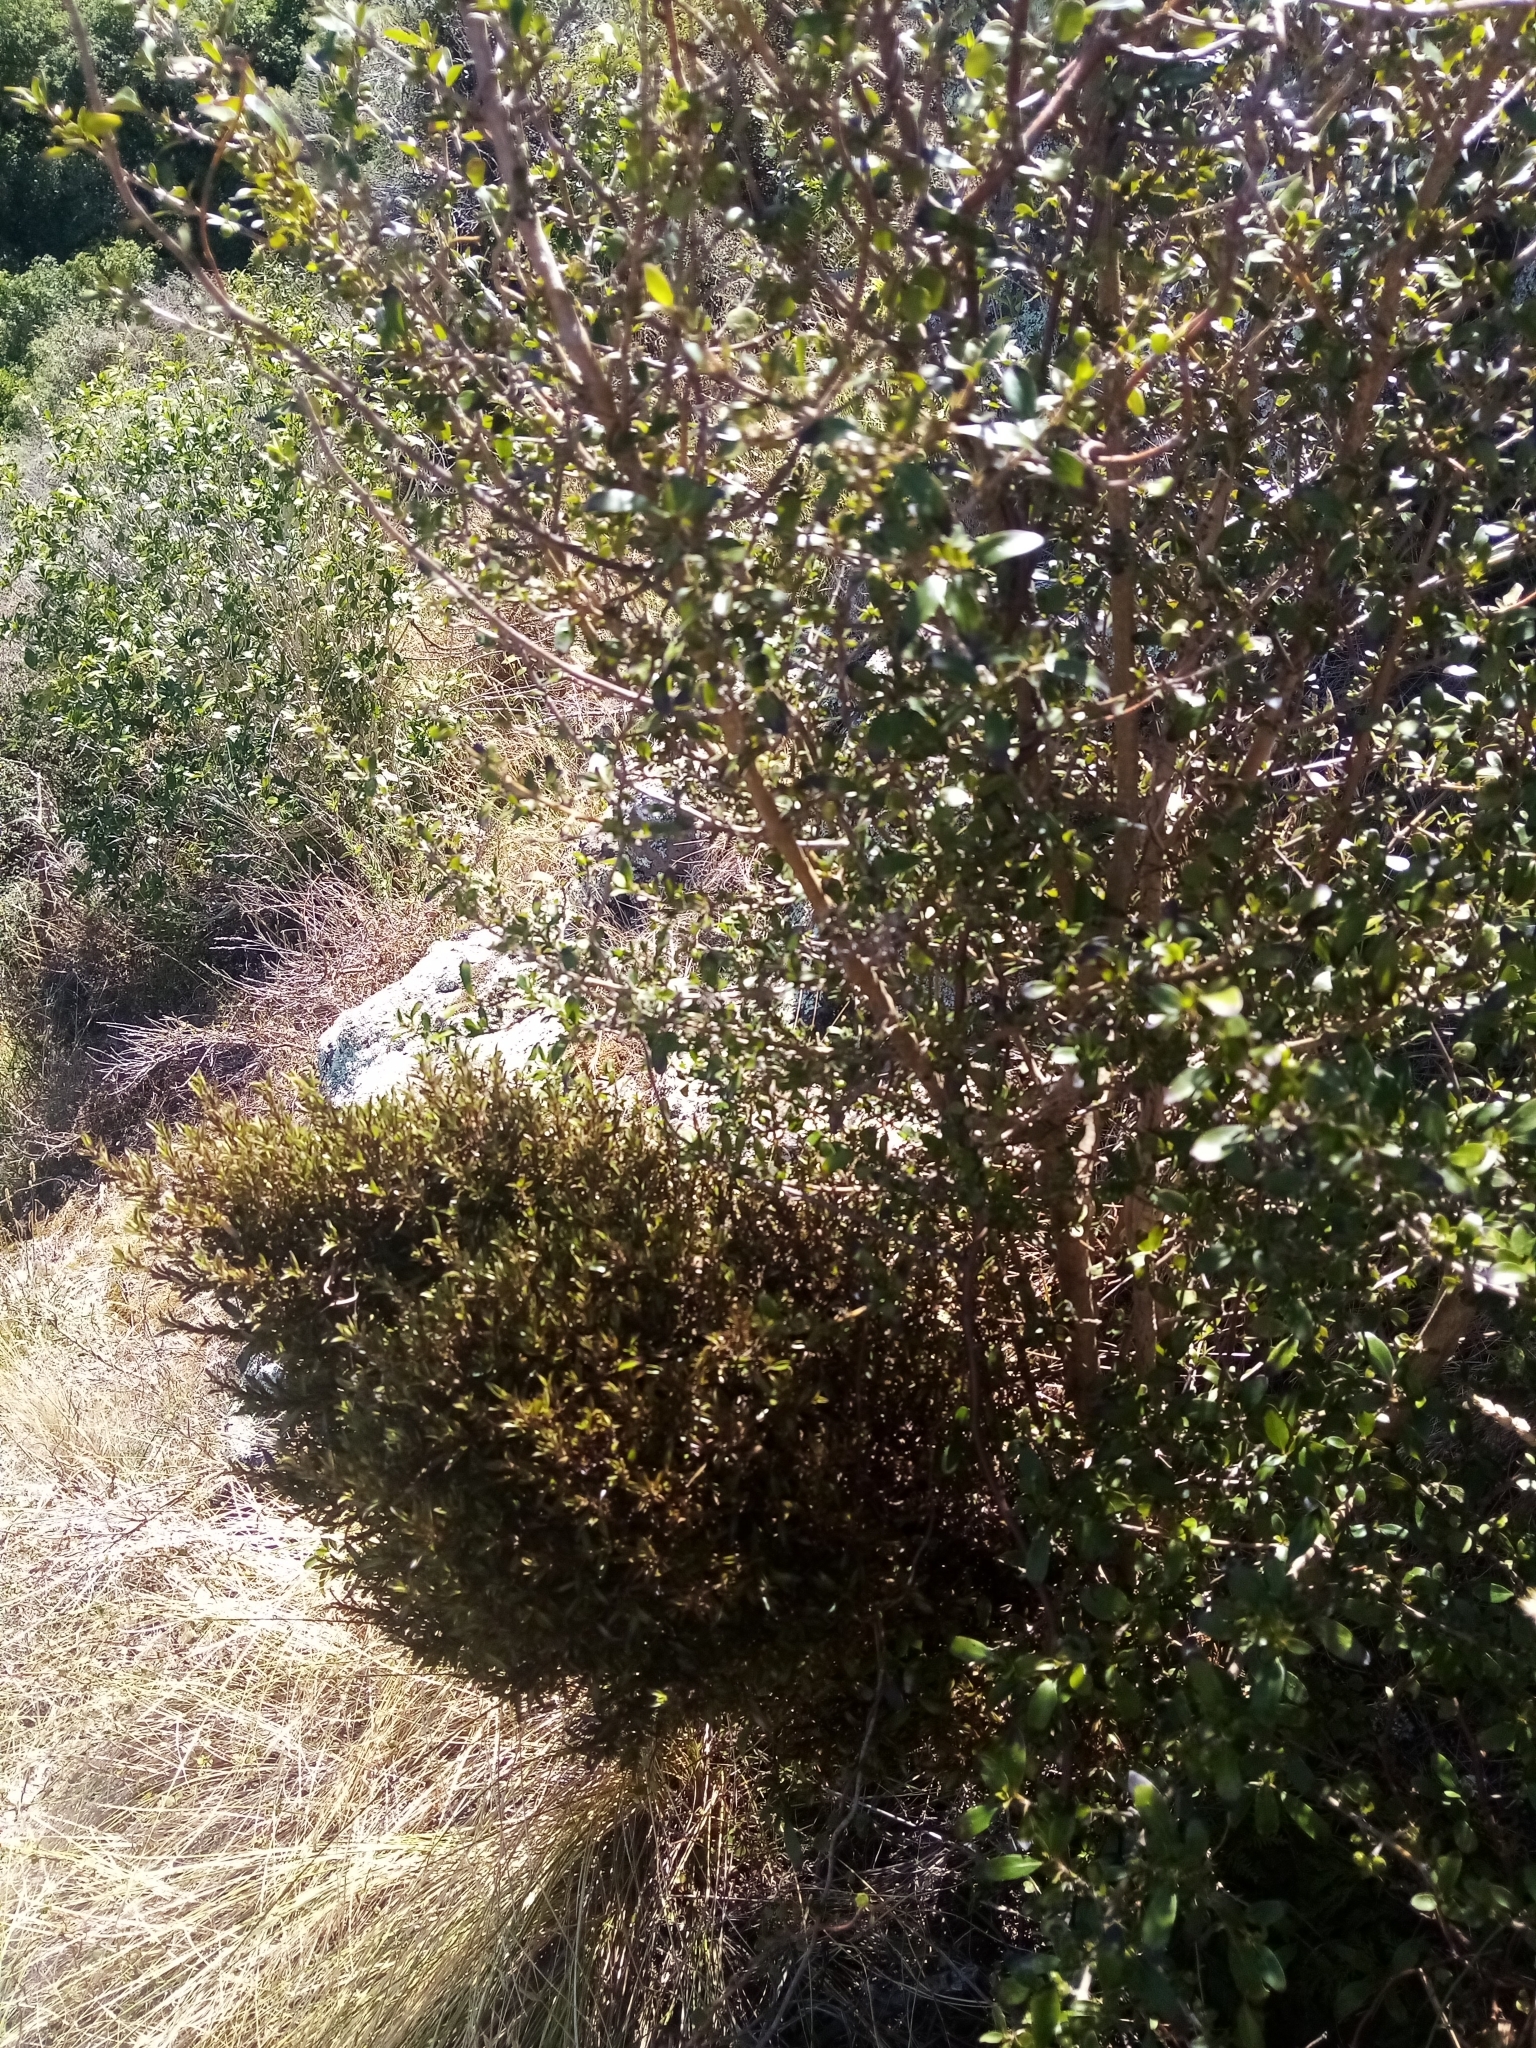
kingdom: Plantae
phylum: Tracheophyta
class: Magnoliopsida
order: Gentianales
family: Rubiaceae
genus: Coprosma
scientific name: Coprosma cunninghamii
